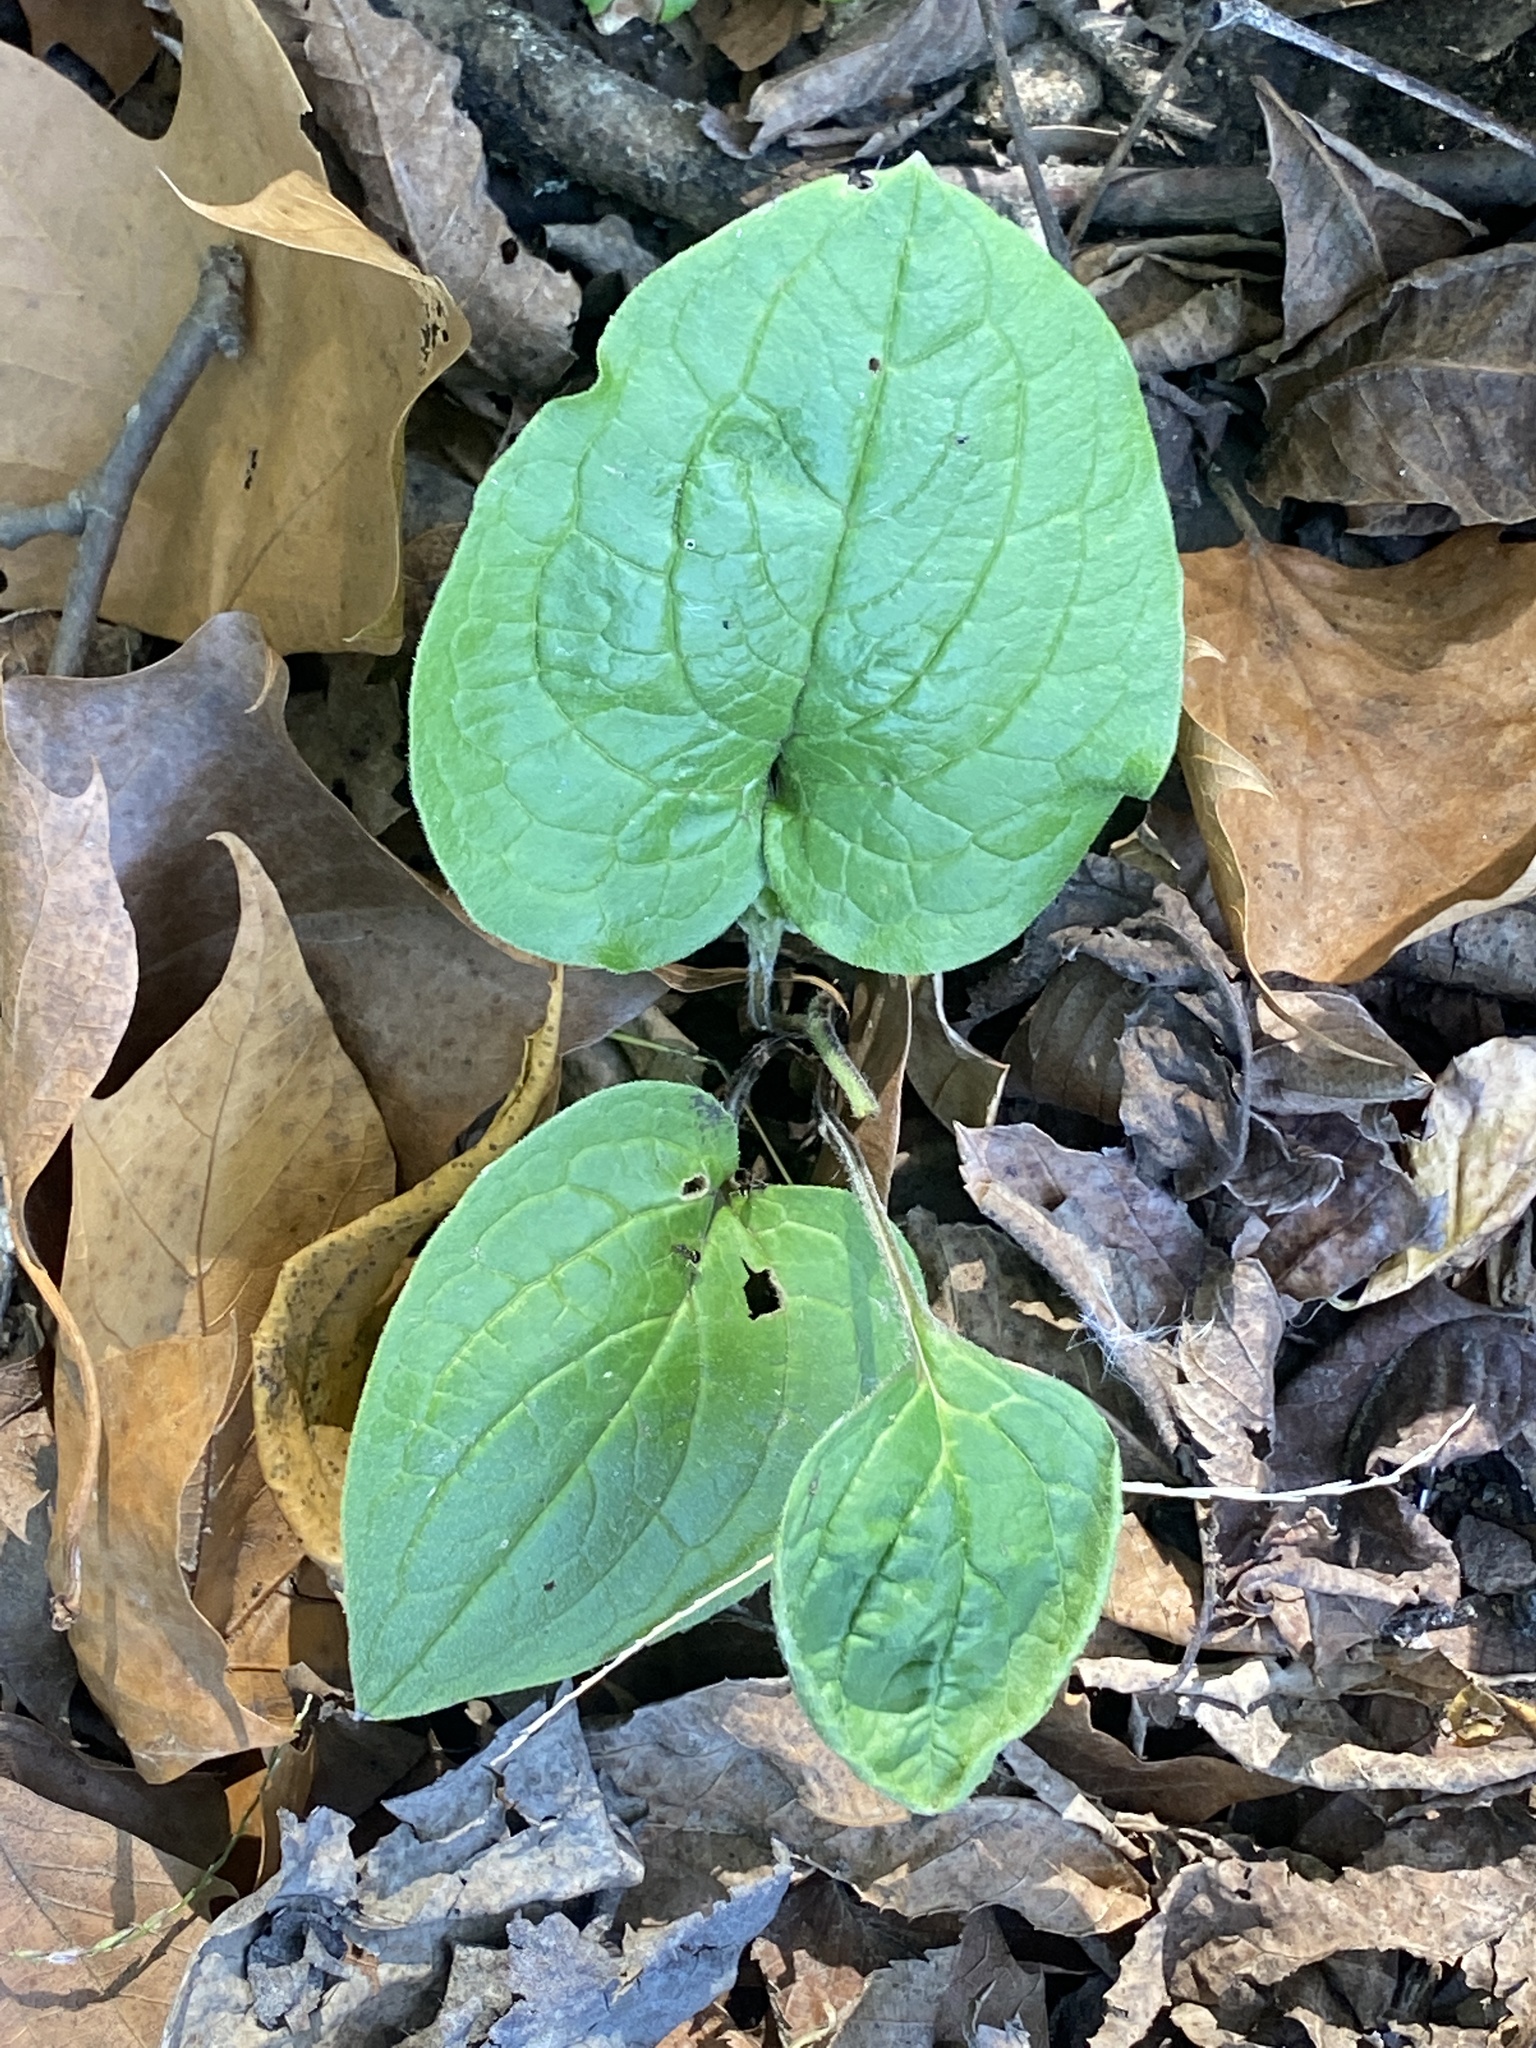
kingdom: Plantae
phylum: Tracheophyta
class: Magnoliopsida
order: Boraginales
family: Boraginaceae
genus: Hackelia
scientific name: Hackelia virginiana
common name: Beggar's-lice
